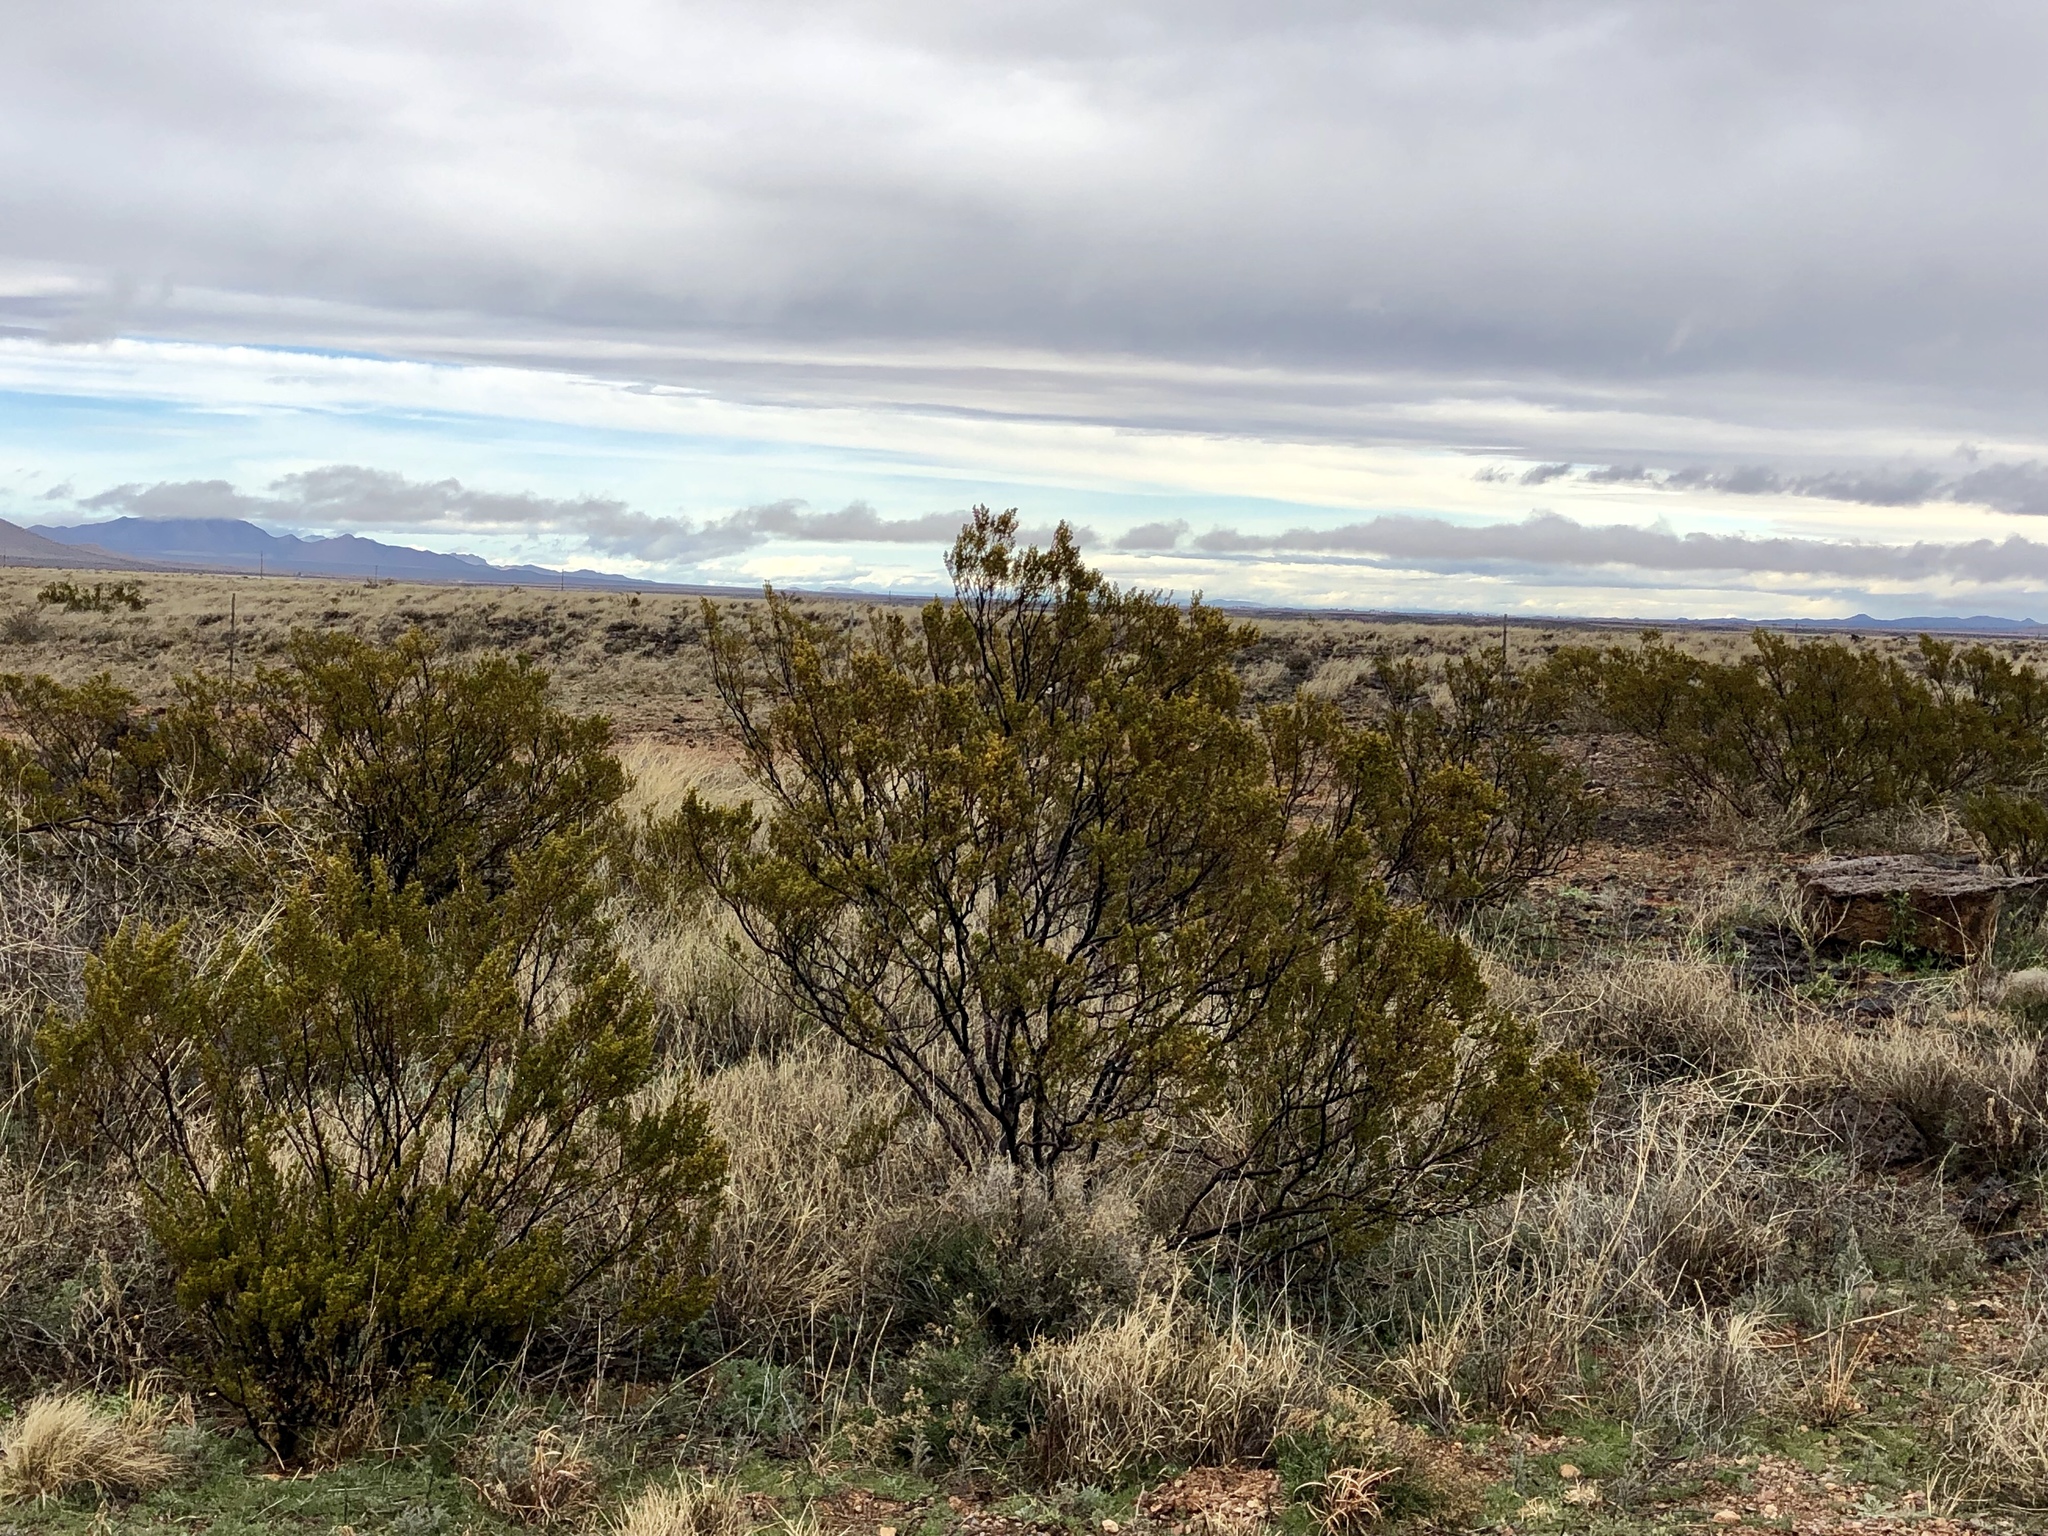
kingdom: Plantae
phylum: Tracheophyta
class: Magnoliopsida
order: Zygophyllales
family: Zygophyllaceae
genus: Larrea
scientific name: Larrea tridentata
